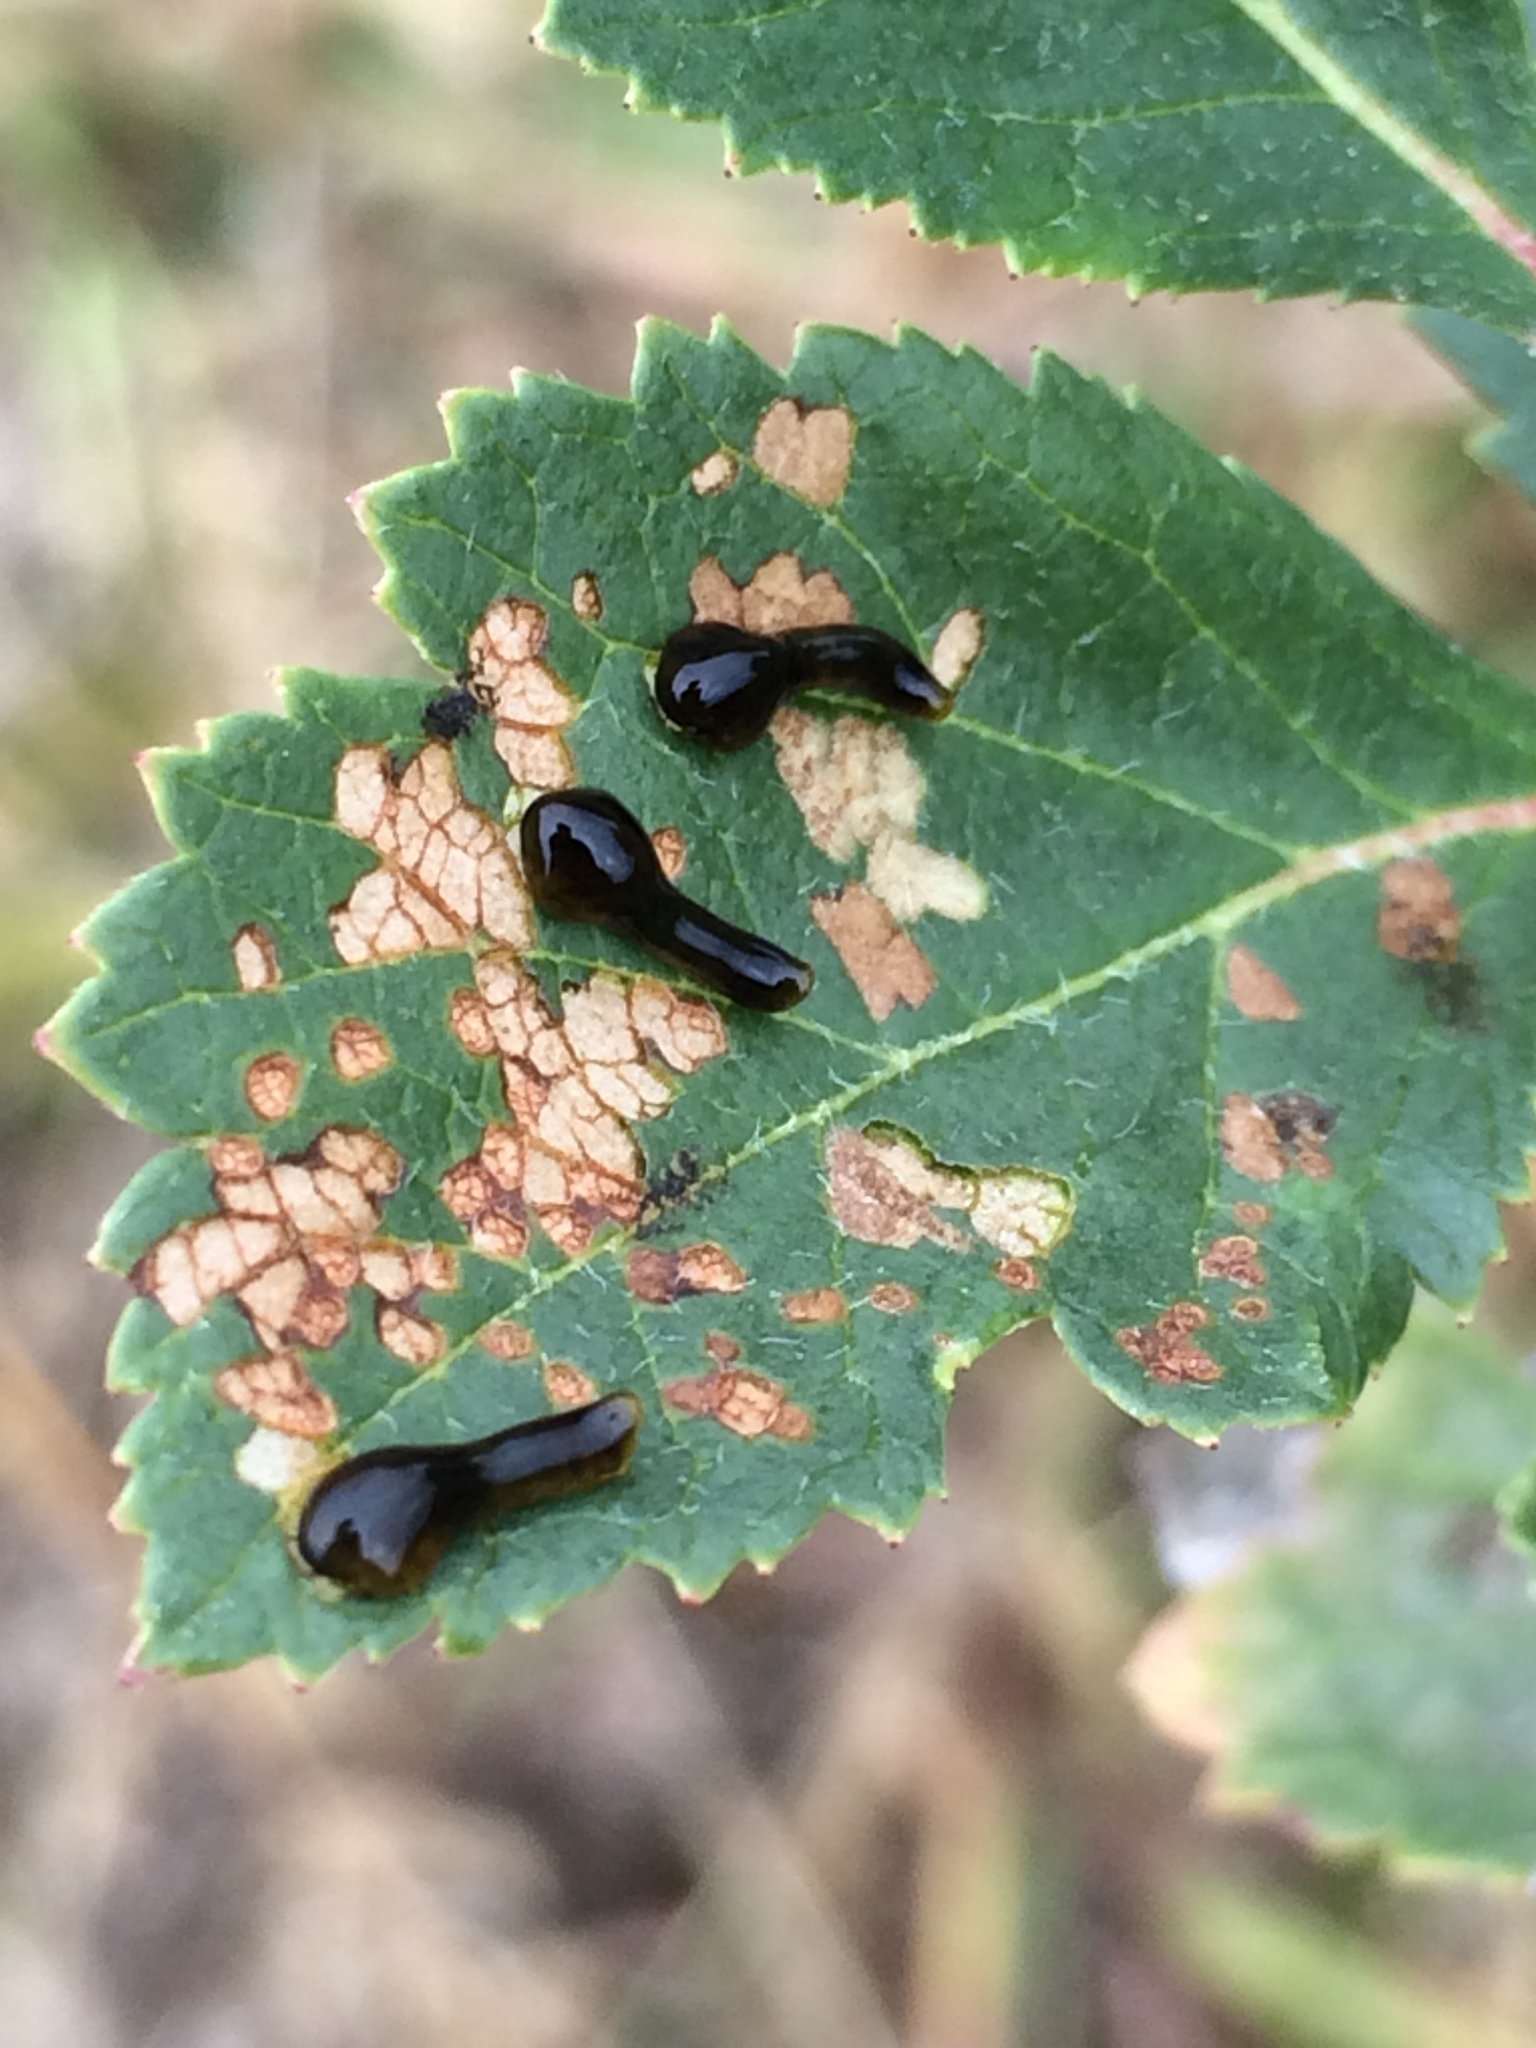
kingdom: Animalia
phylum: Arthropoda
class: Insecta
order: Hymenoptera
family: Tenthredinidae
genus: Caliroa
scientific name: Caliroa cerasi
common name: Pear sawfly
